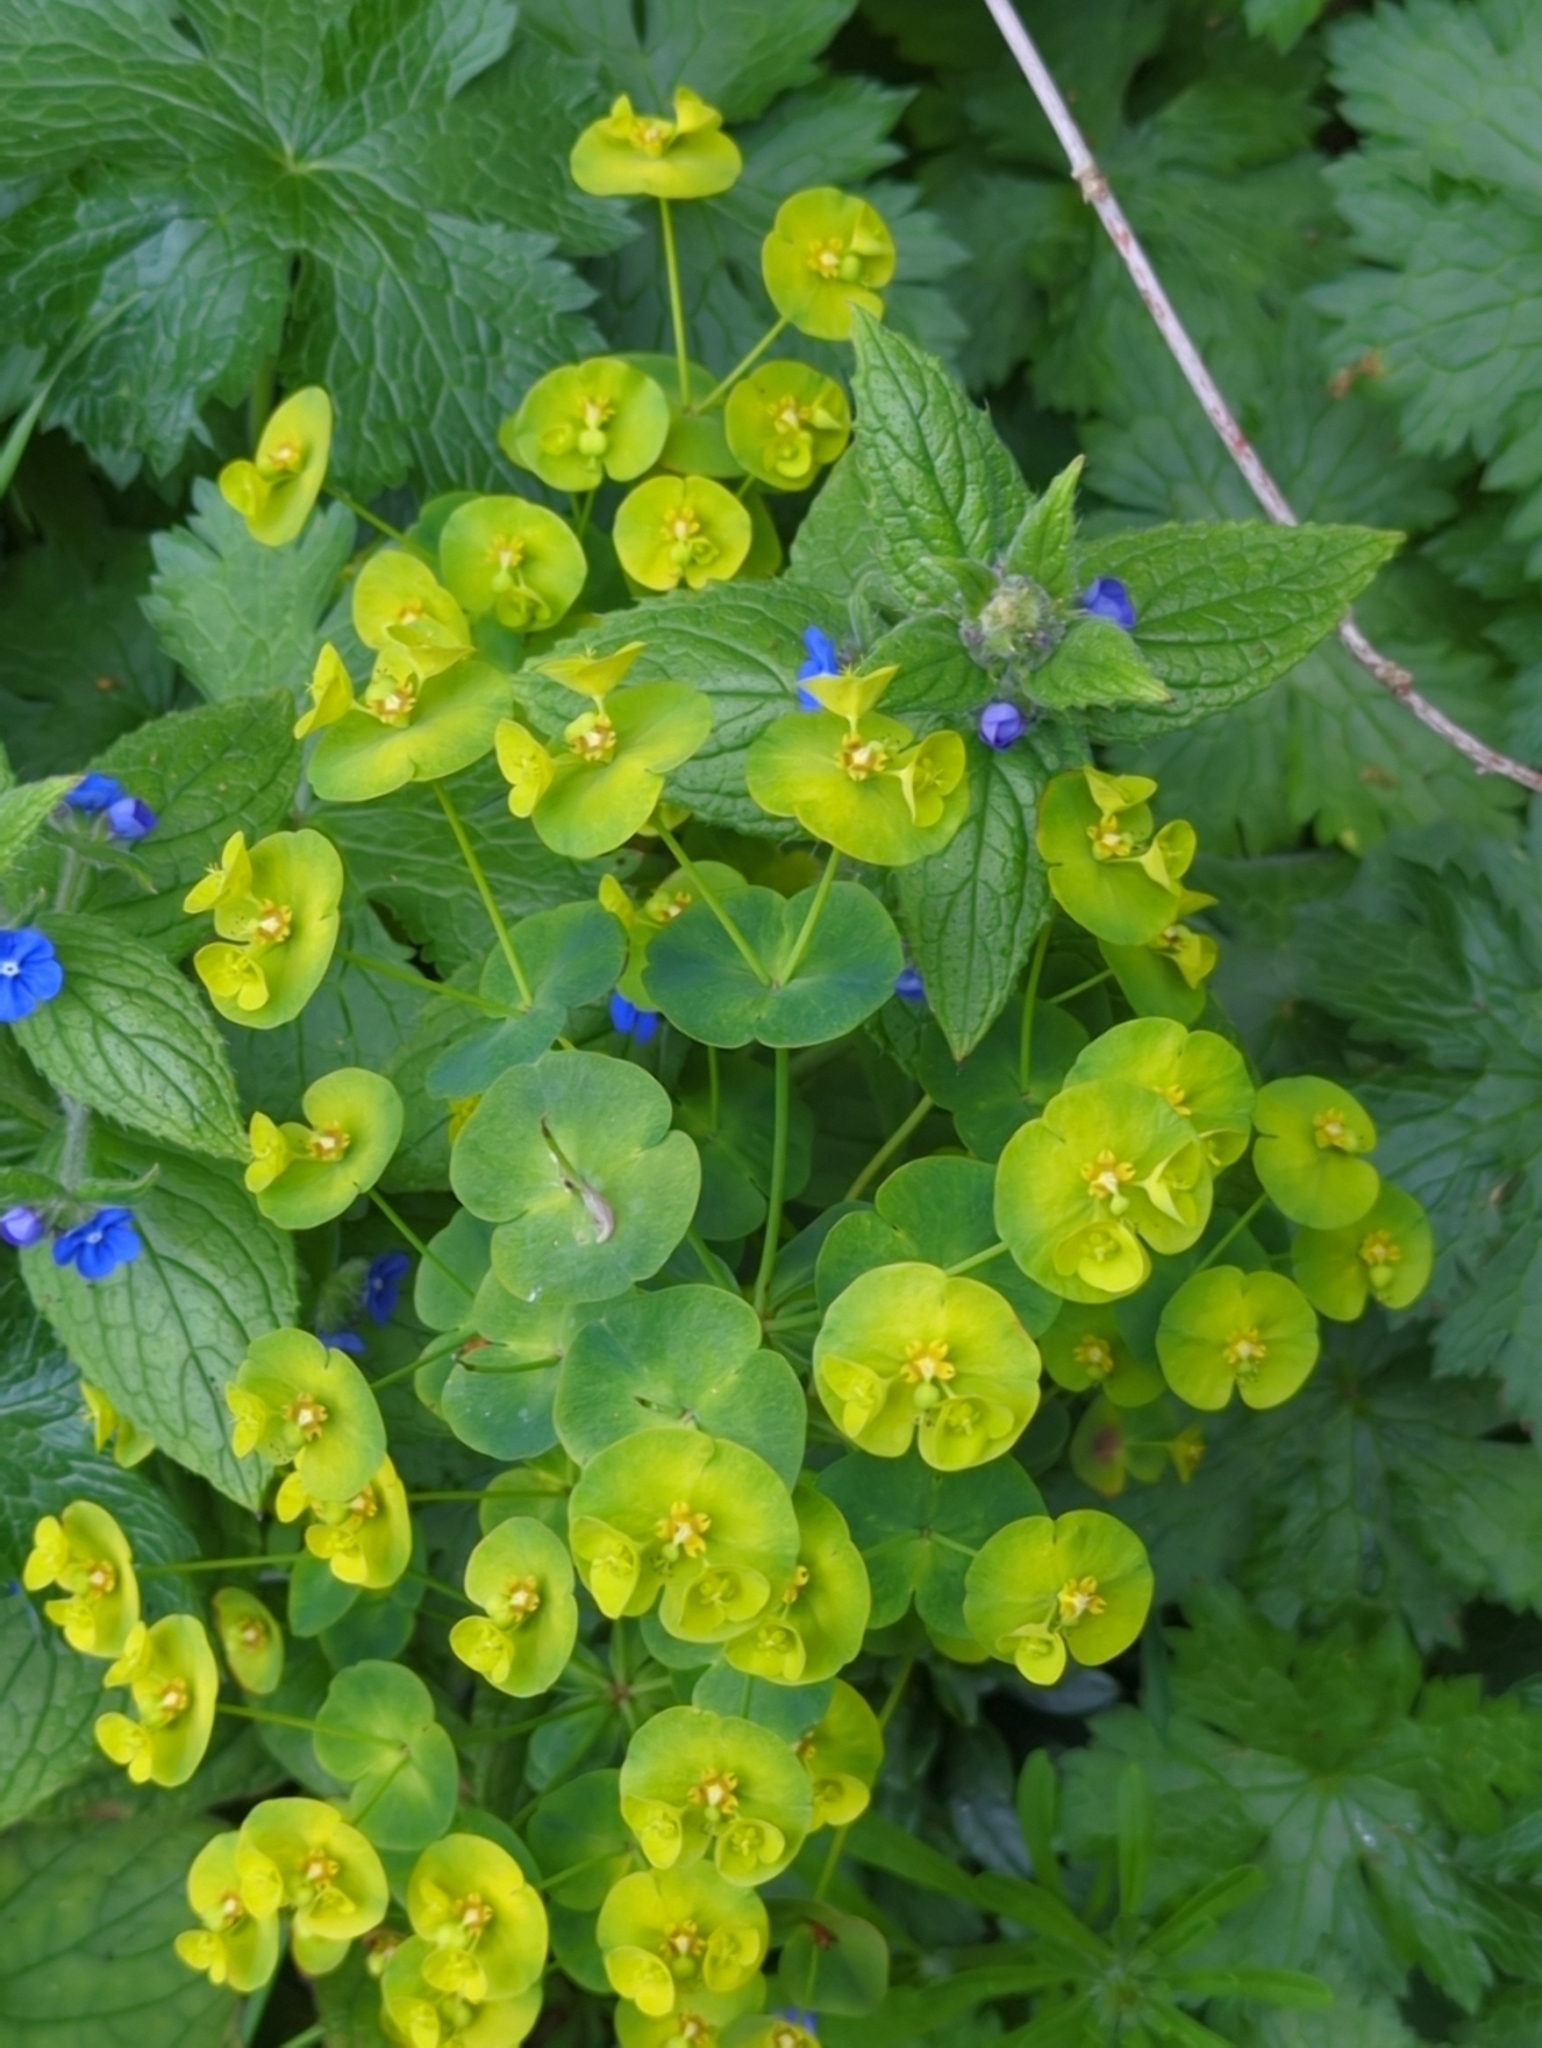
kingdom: Plantae
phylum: Tracheophyta
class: Magnoliopsida
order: Malpighiales
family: Euphorbiaceae
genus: Euphorbia
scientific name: Euphorbia amygdaloides
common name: Wood spurge
